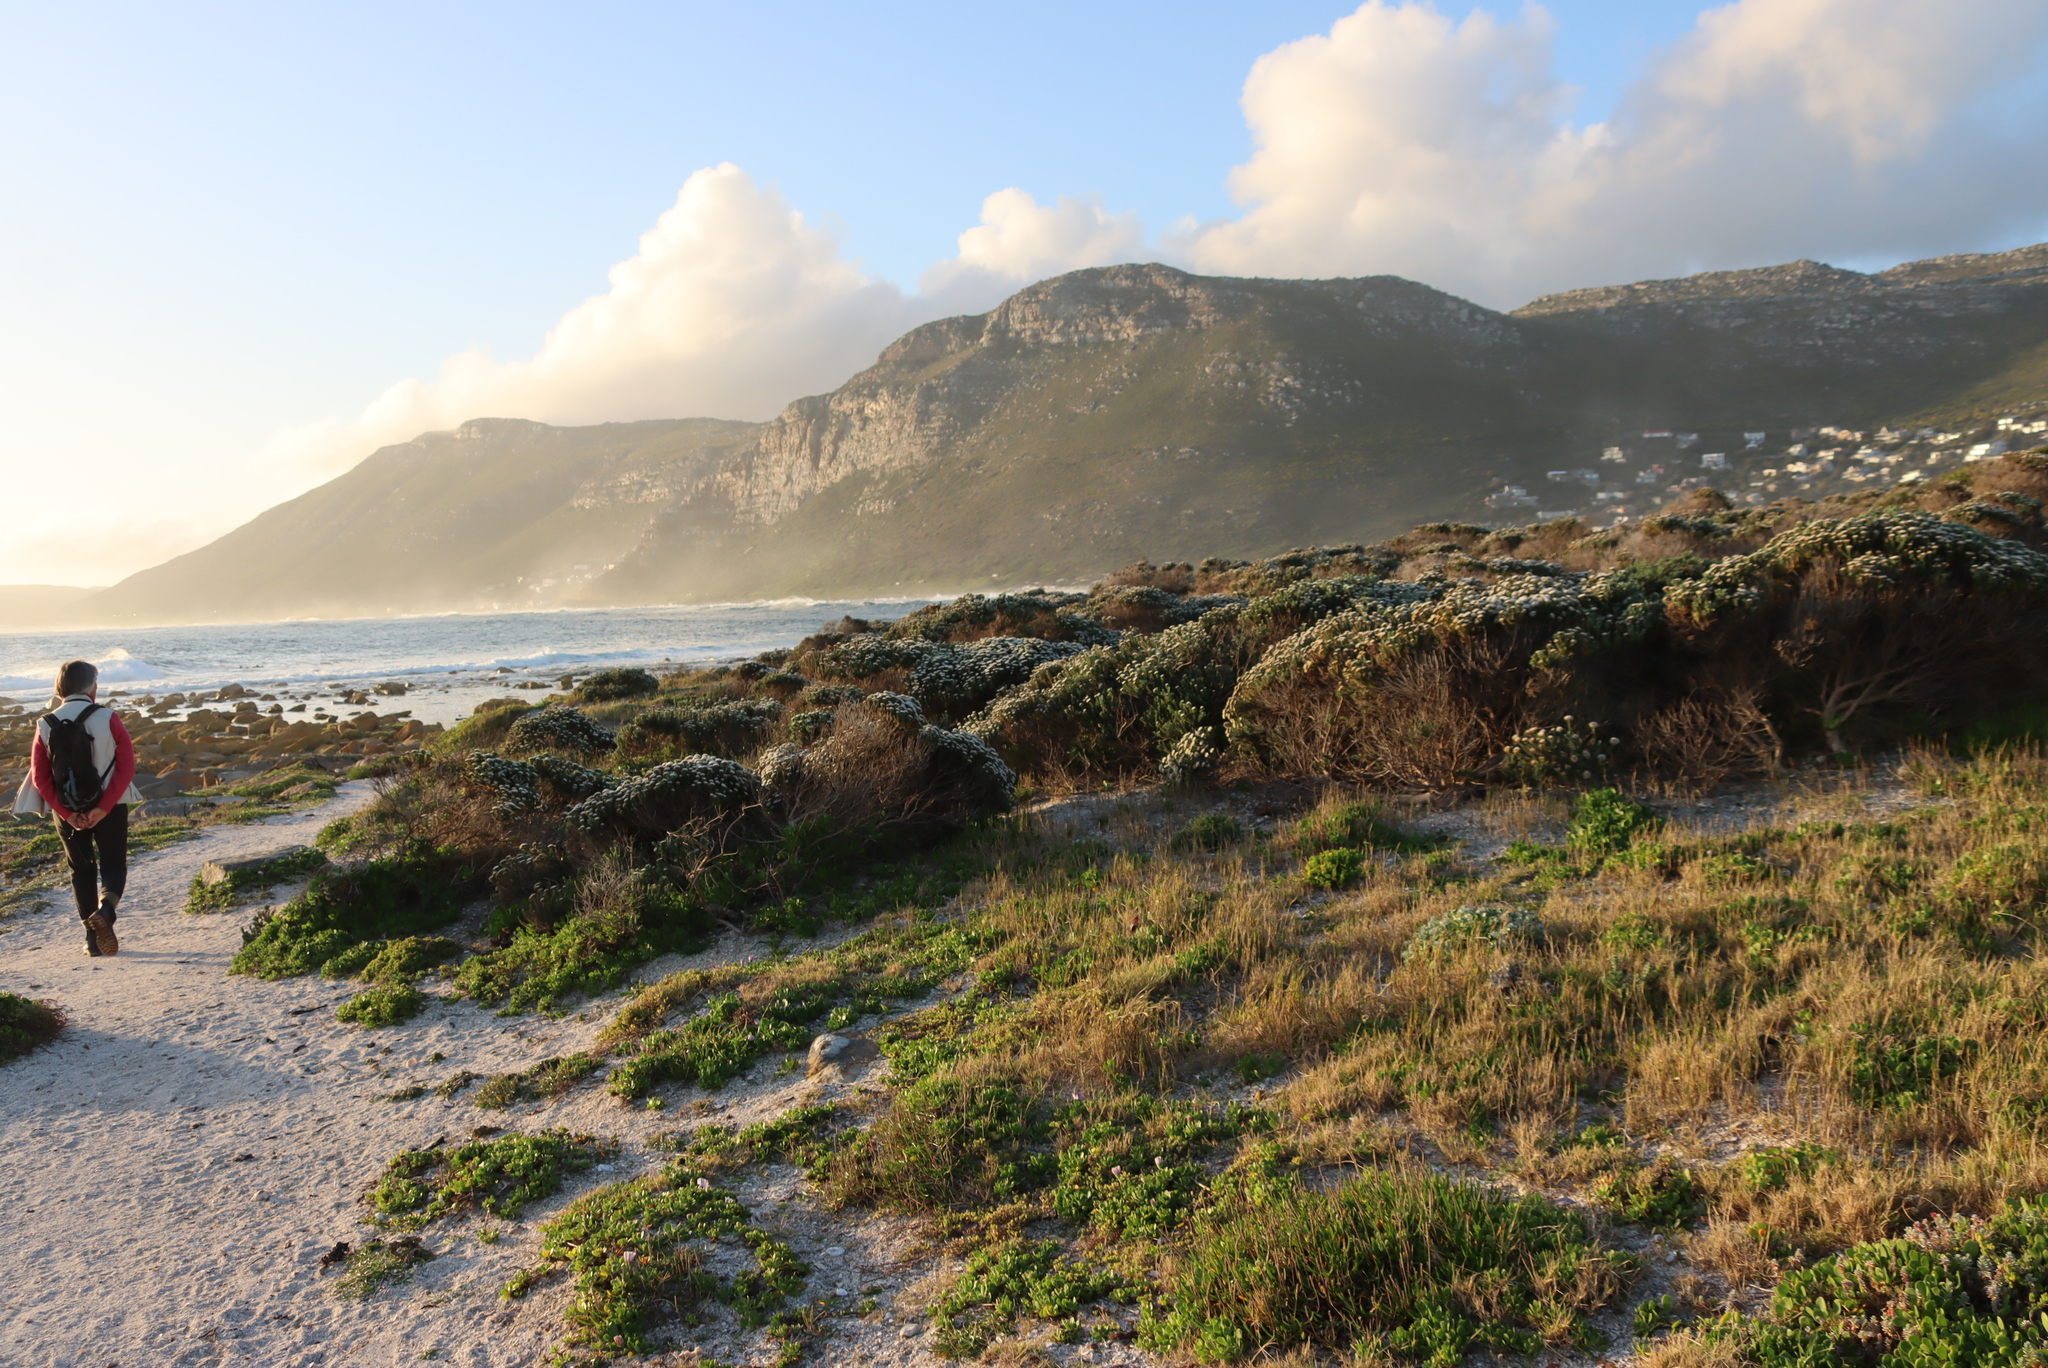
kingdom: Plantae
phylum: Tracheophyta
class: Magnoliopsida
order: Asterales
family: Asteraceae
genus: Metalasia
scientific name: Metalasia muricata
